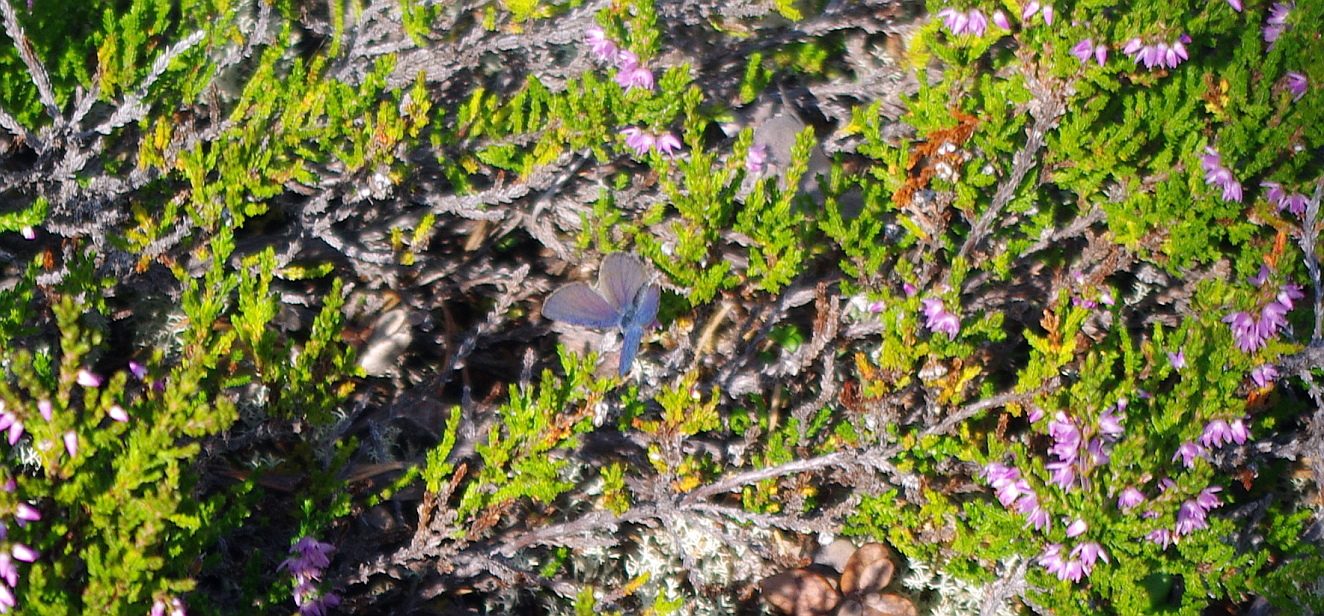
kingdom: Animalia
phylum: Arthropoda
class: Insecta
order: Lepidoptera
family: Lycaenidae
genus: Vacciniina
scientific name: Vacciniina optilete
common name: Cranberry blue
